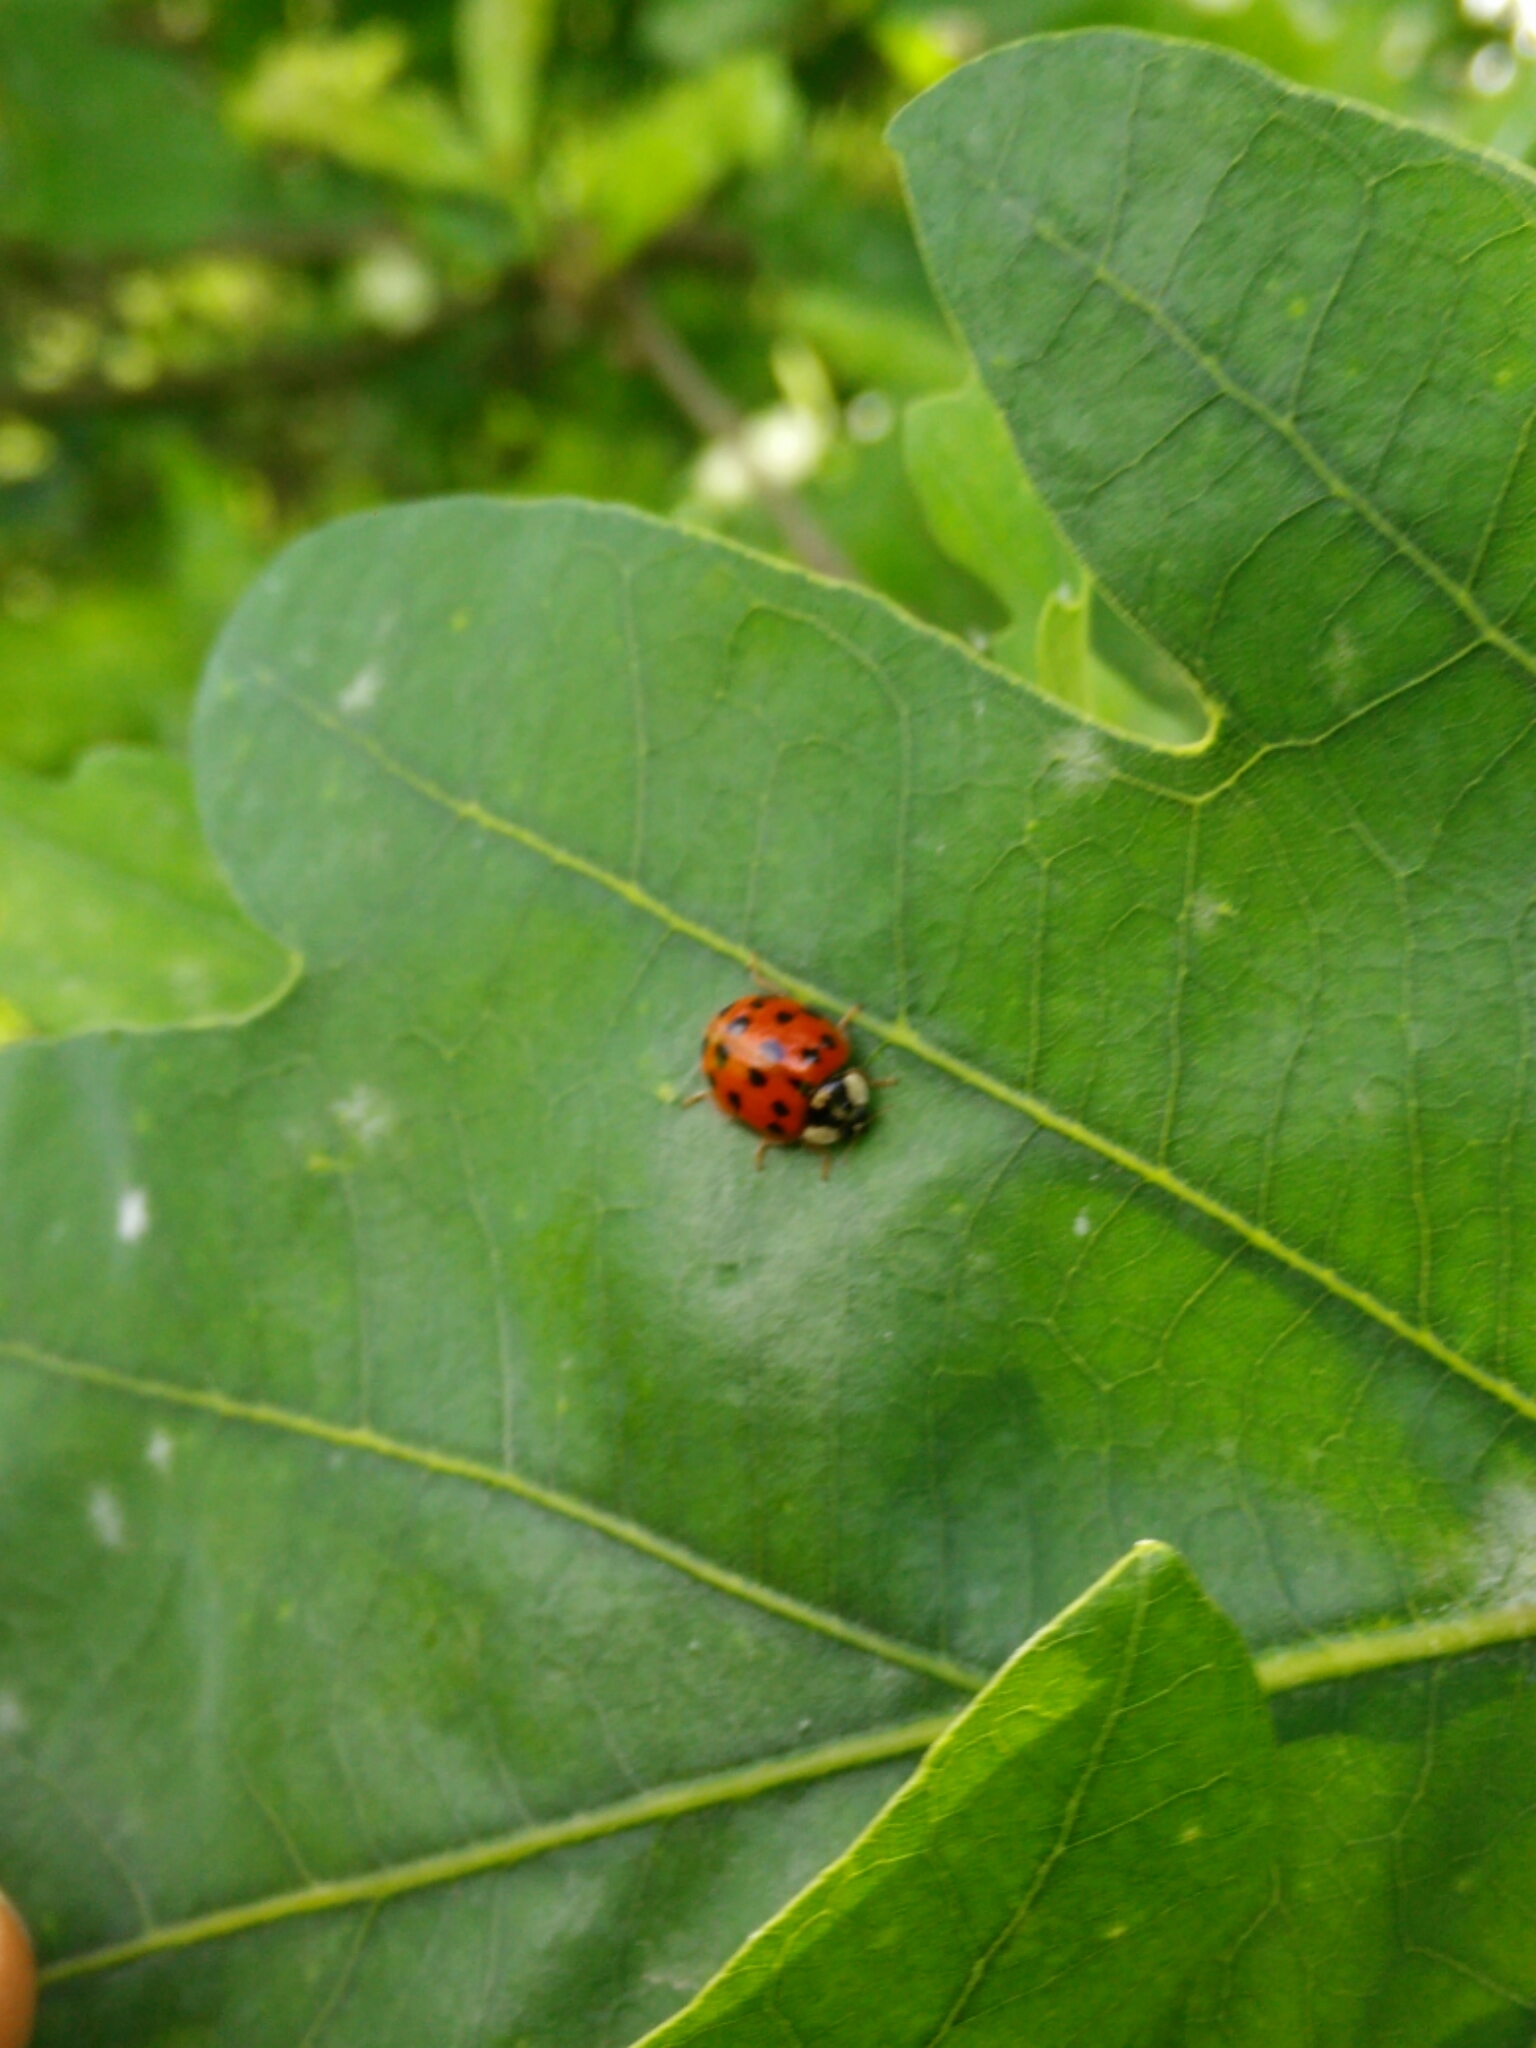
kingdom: Animalia
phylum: Arthropoda
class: Insecta
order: Coleoptera
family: Coccinellidae
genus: Harmonia
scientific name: Harmonia axyridis
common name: Harlequin ladybird
